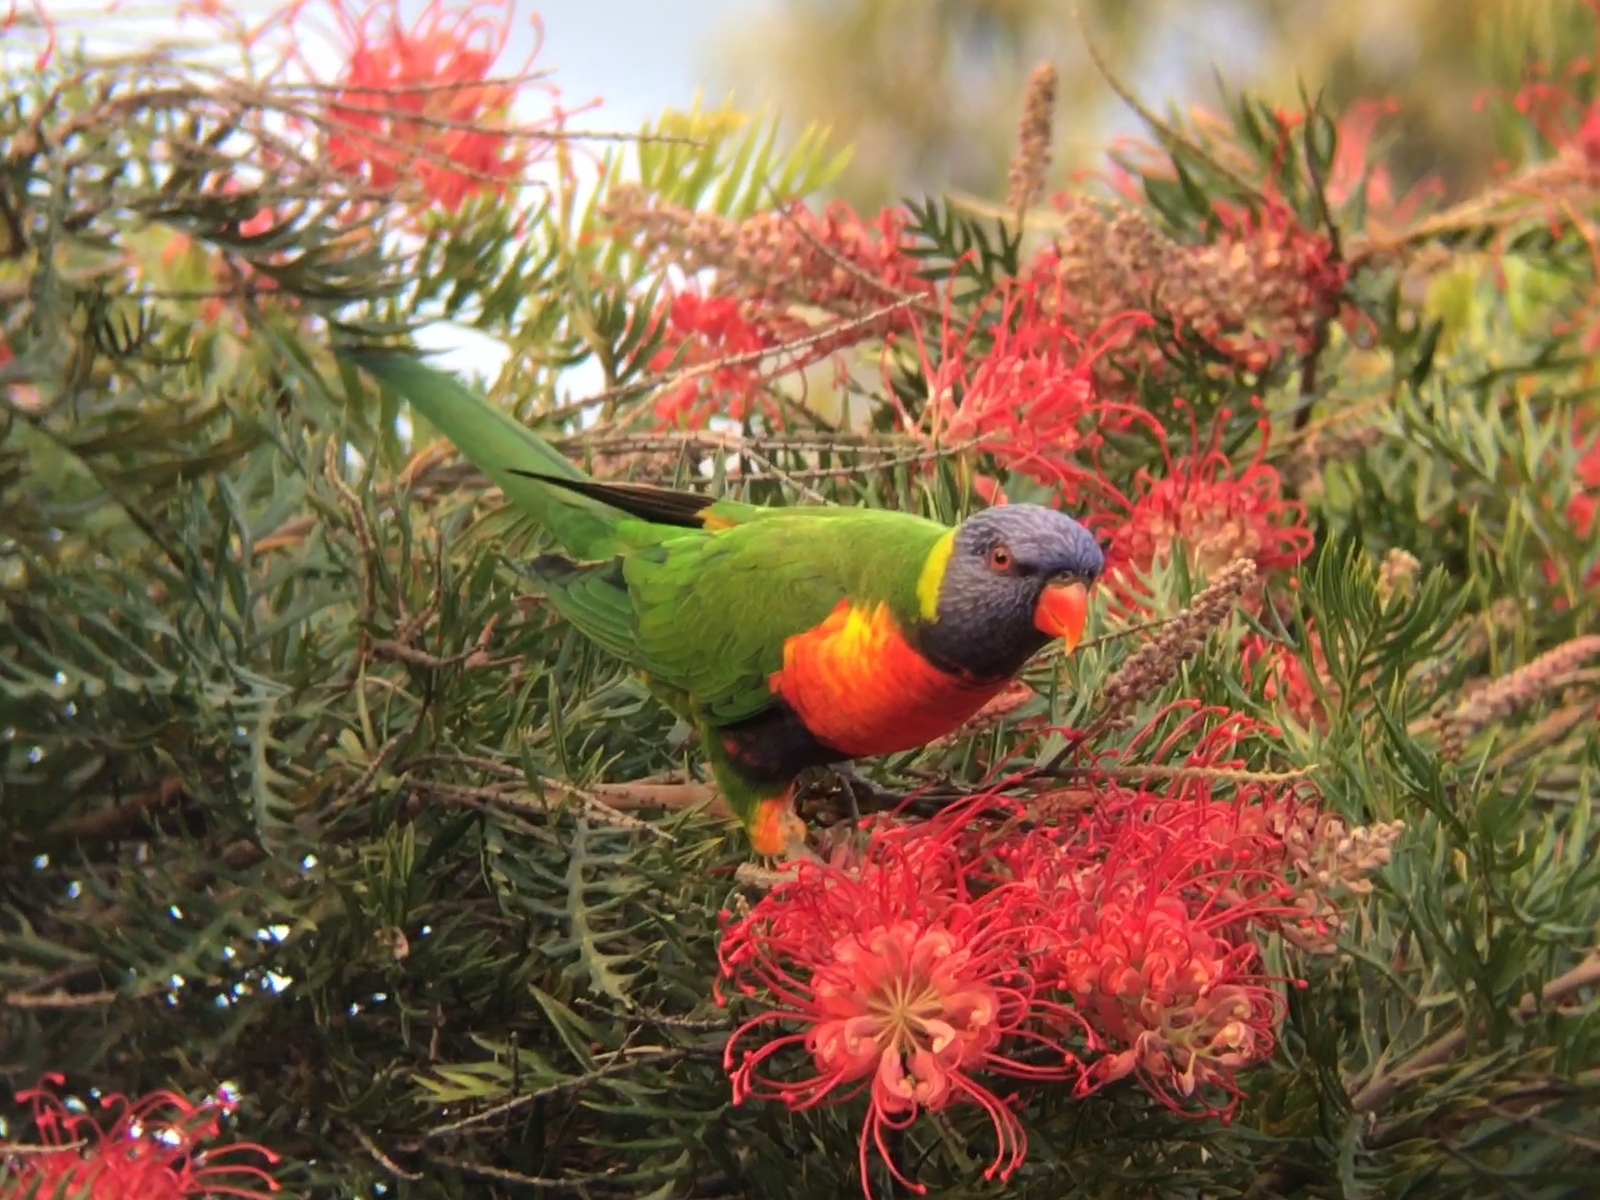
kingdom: Animalia
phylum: Chordata
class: Aves
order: Psittaciformes
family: Psittacidae
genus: Trichoglossus
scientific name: Trichoglossus haematodus
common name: Coconut lorikeet
